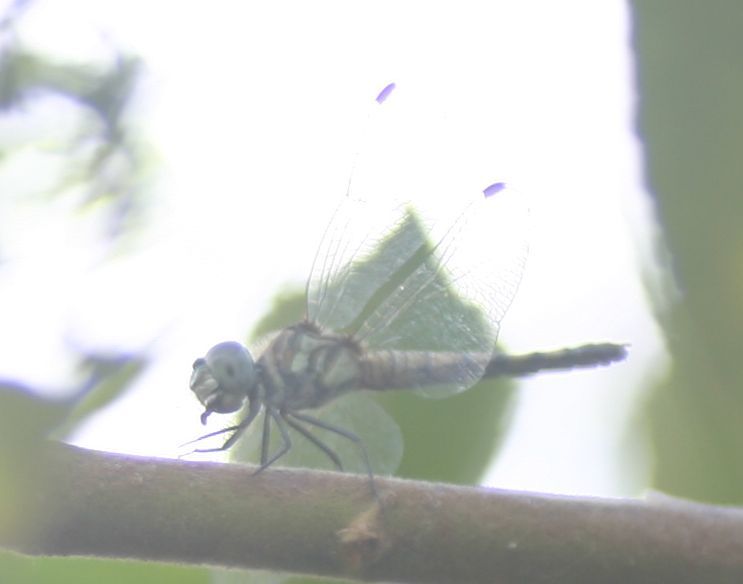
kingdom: Animalia
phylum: Arthropoda
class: Insecta
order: Odonata
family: Libellulidae
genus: Potamarcha
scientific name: Potamarcha congener
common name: Blue chaser
